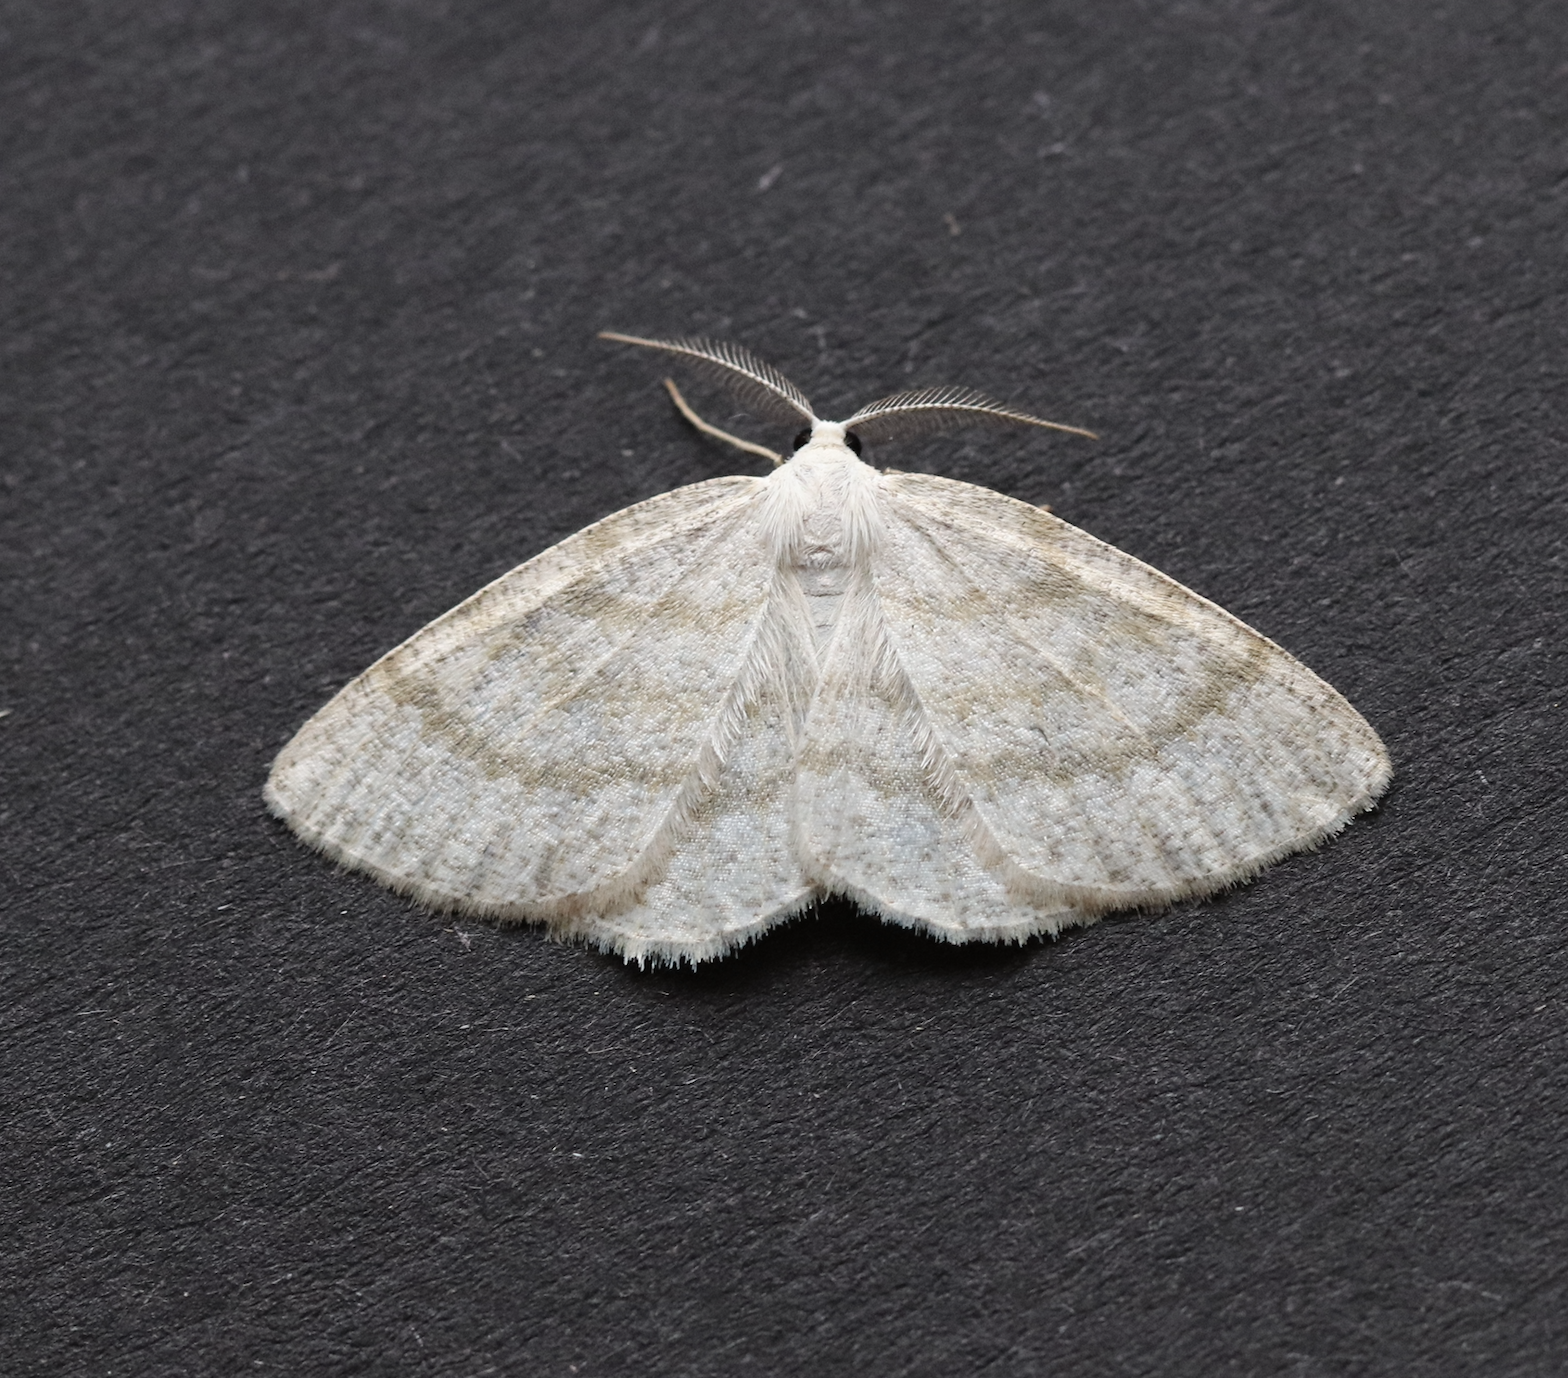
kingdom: Animalia
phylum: Arthropoda
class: Insecta
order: Lepidoptera
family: Geometridae
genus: Cabera
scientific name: Cabera exanthemata
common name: Common wave
